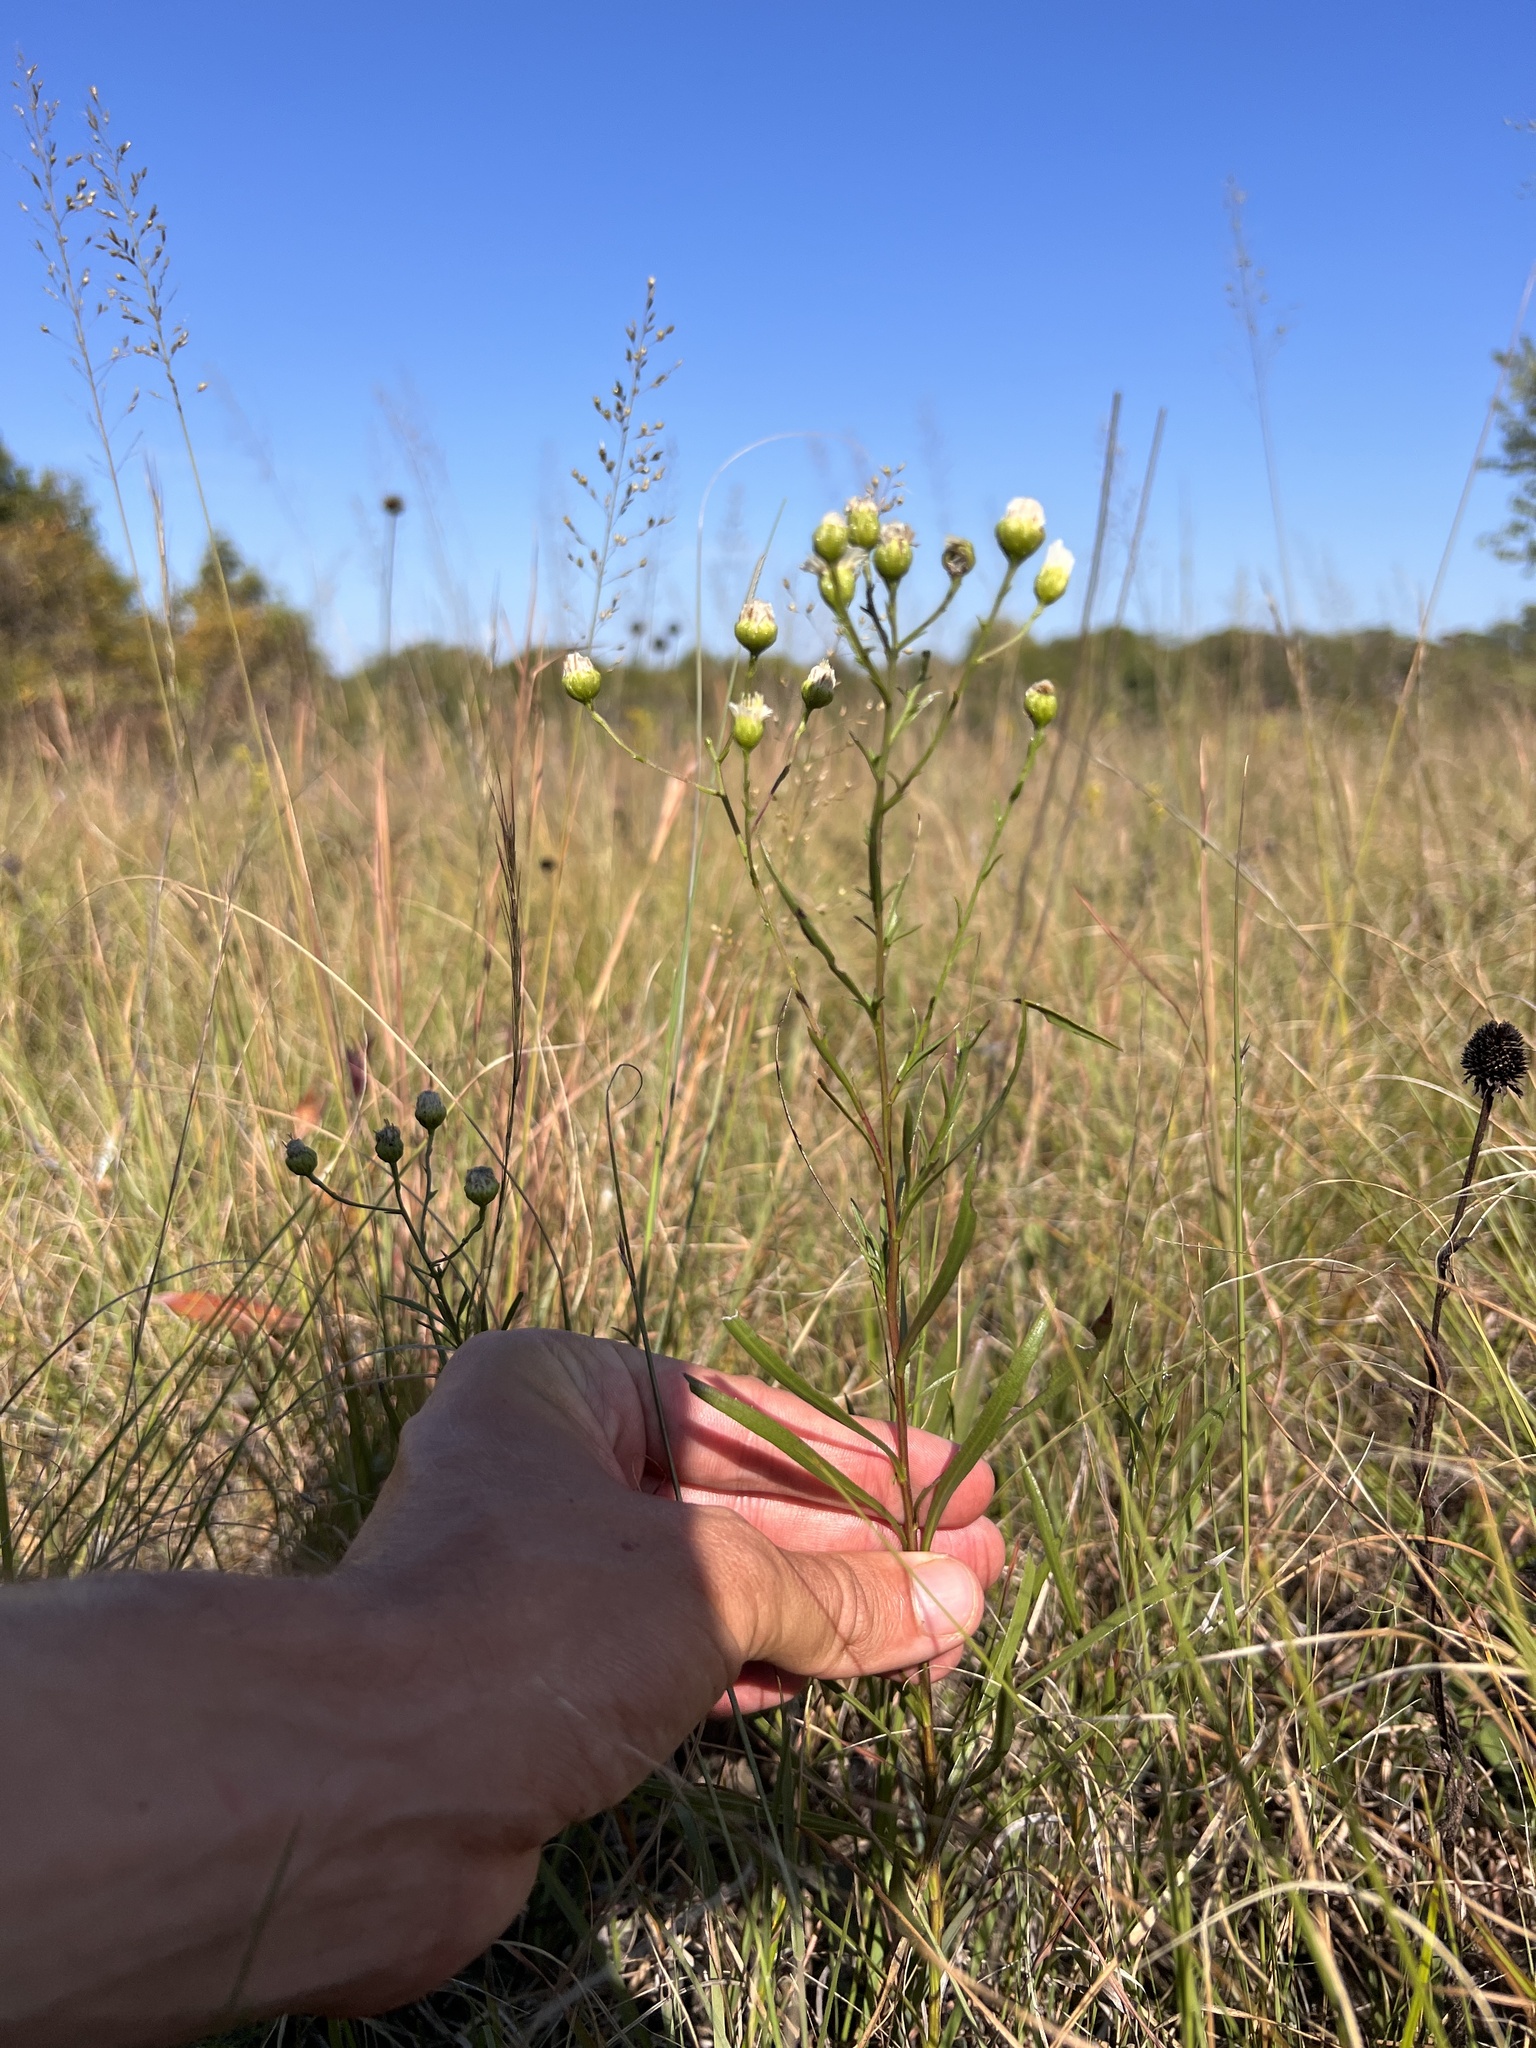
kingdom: Plantae
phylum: Tracheophyta
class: Magnoliopsida
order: Asterales
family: Asteraceae
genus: Solidago
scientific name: Solidago ptarmicoides
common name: White flat-top goldenrod
